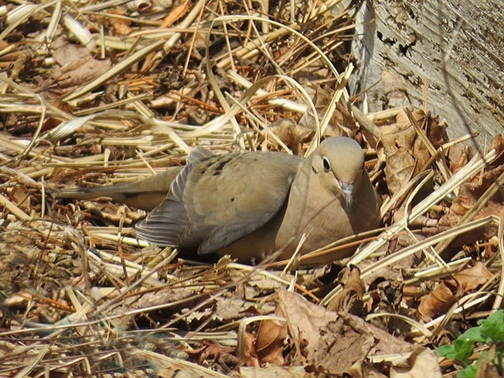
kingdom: Animalia
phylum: Chordata
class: Aves
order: Columbiformes
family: Columbidae
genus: Zenaida
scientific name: Zenaida macroura
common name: Mourning dove
